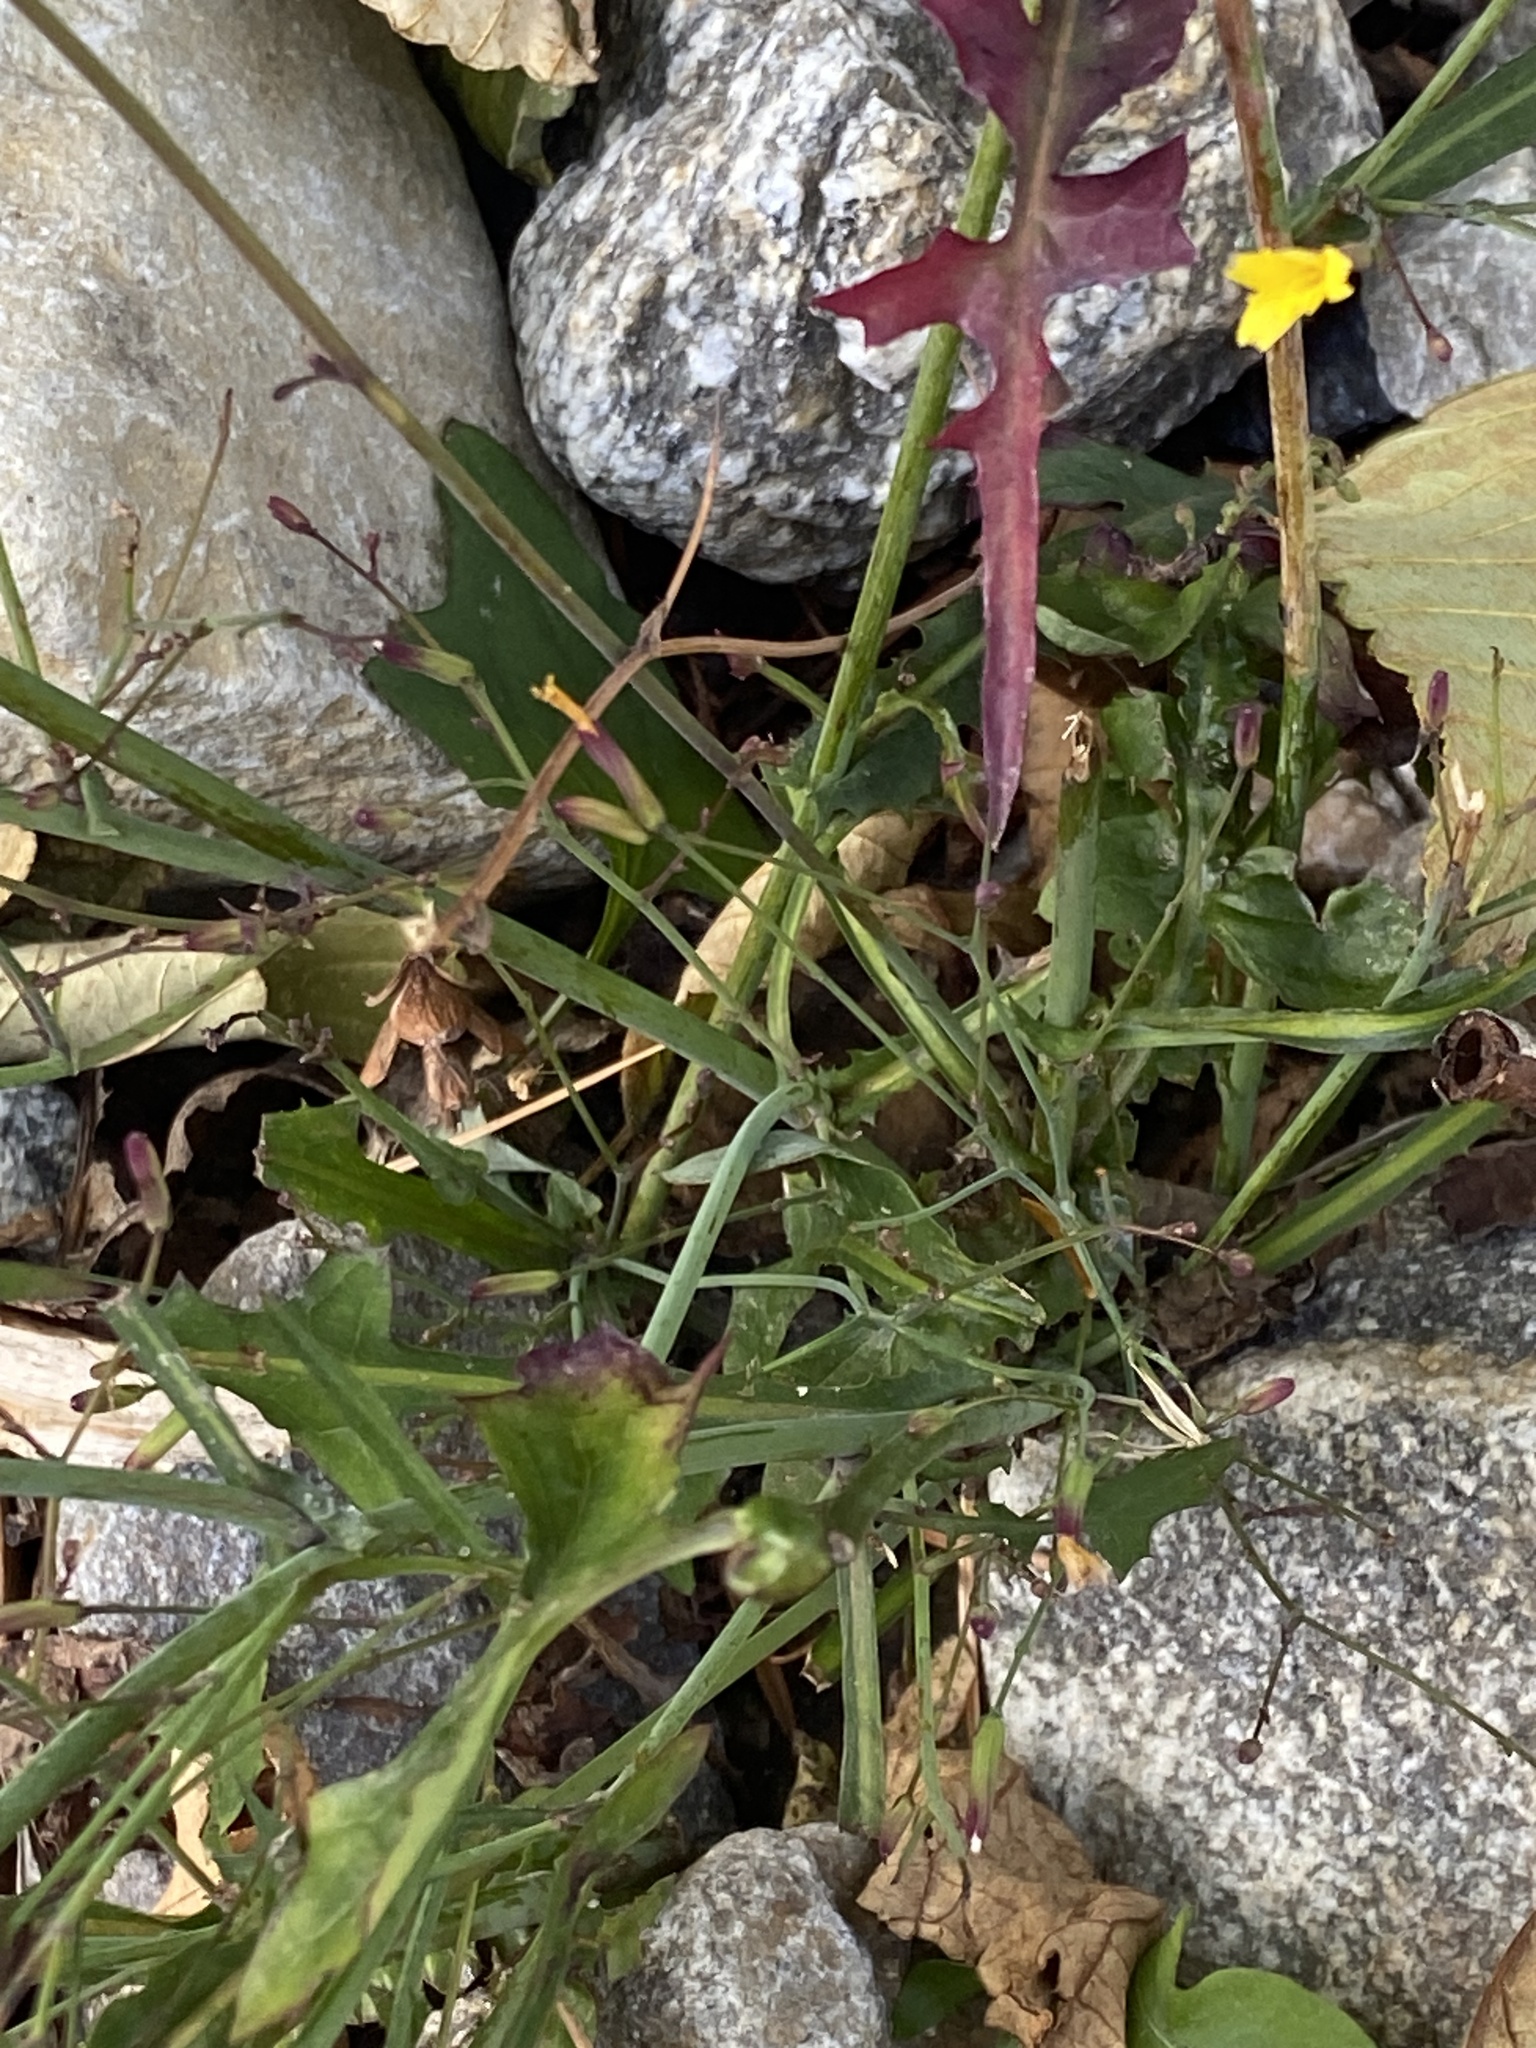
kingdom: Plantae
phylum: Tracheophyta
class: Magnoliopsida
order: Asterales
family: Asteraceae
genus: Mycelis
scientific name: Mycelis muralis
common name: Wall lettuce
